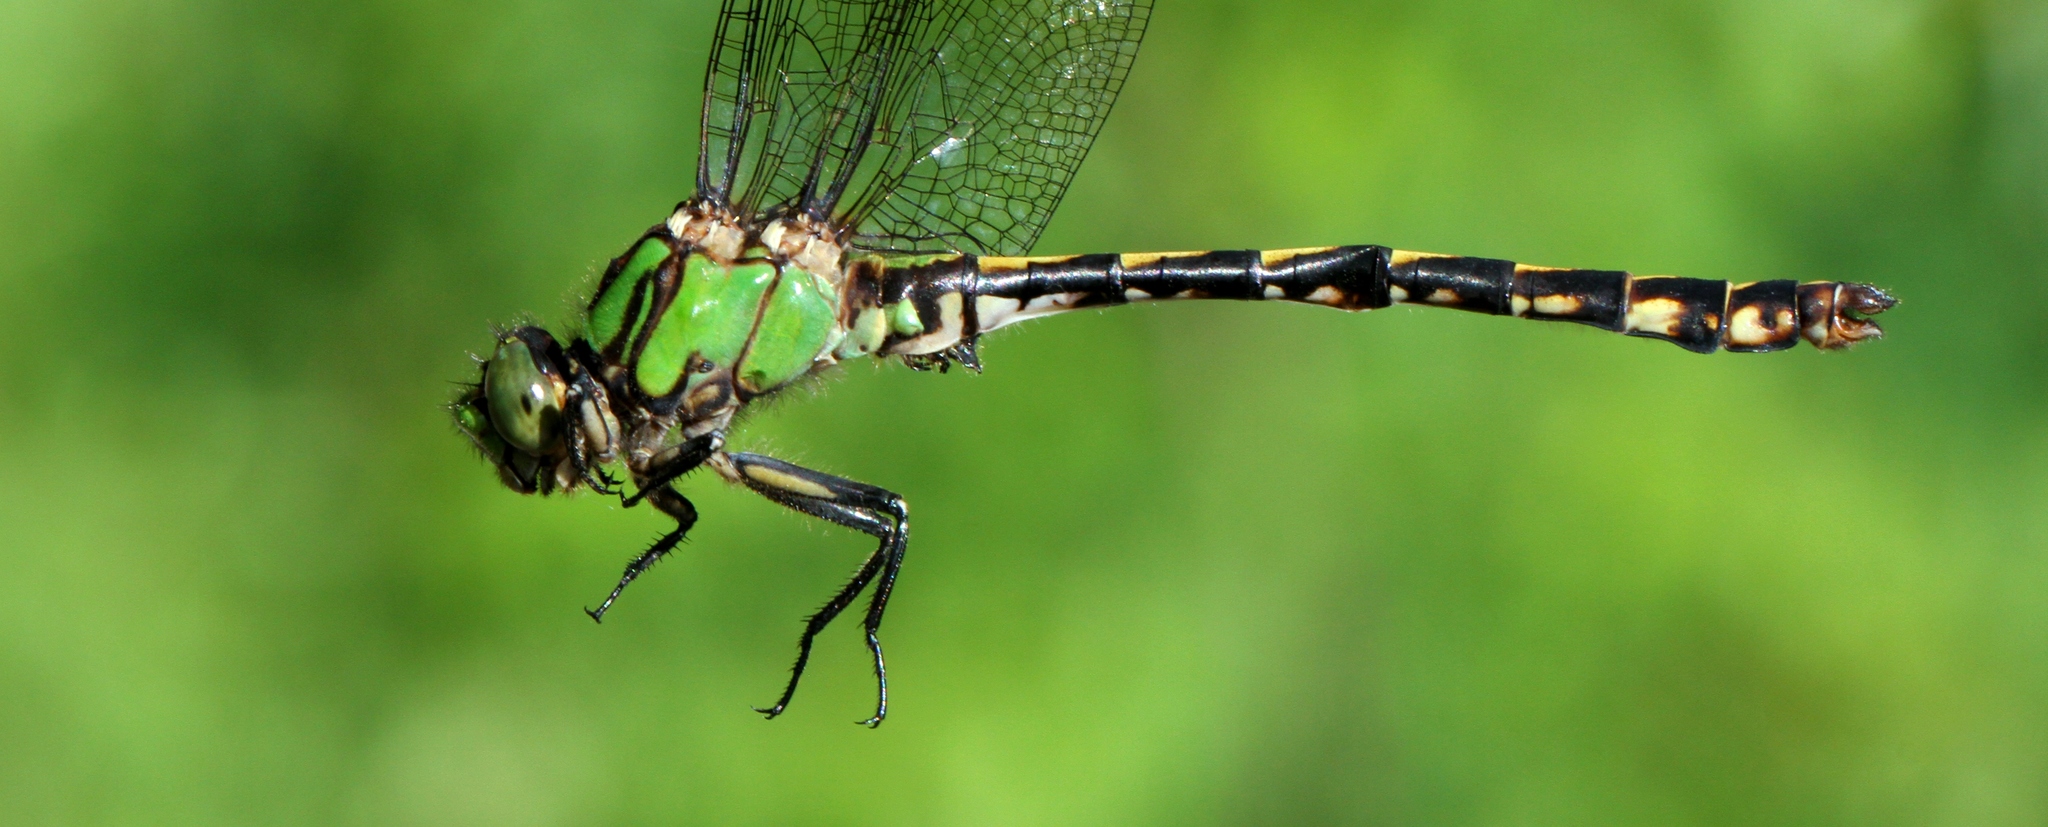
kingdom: Animalia
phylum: Arthropoda
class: Insecta
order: Odonata
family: Gomphidae
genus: Ophiogomphus
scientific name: Ophiogomphus aspersus
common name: Brook snaketail
